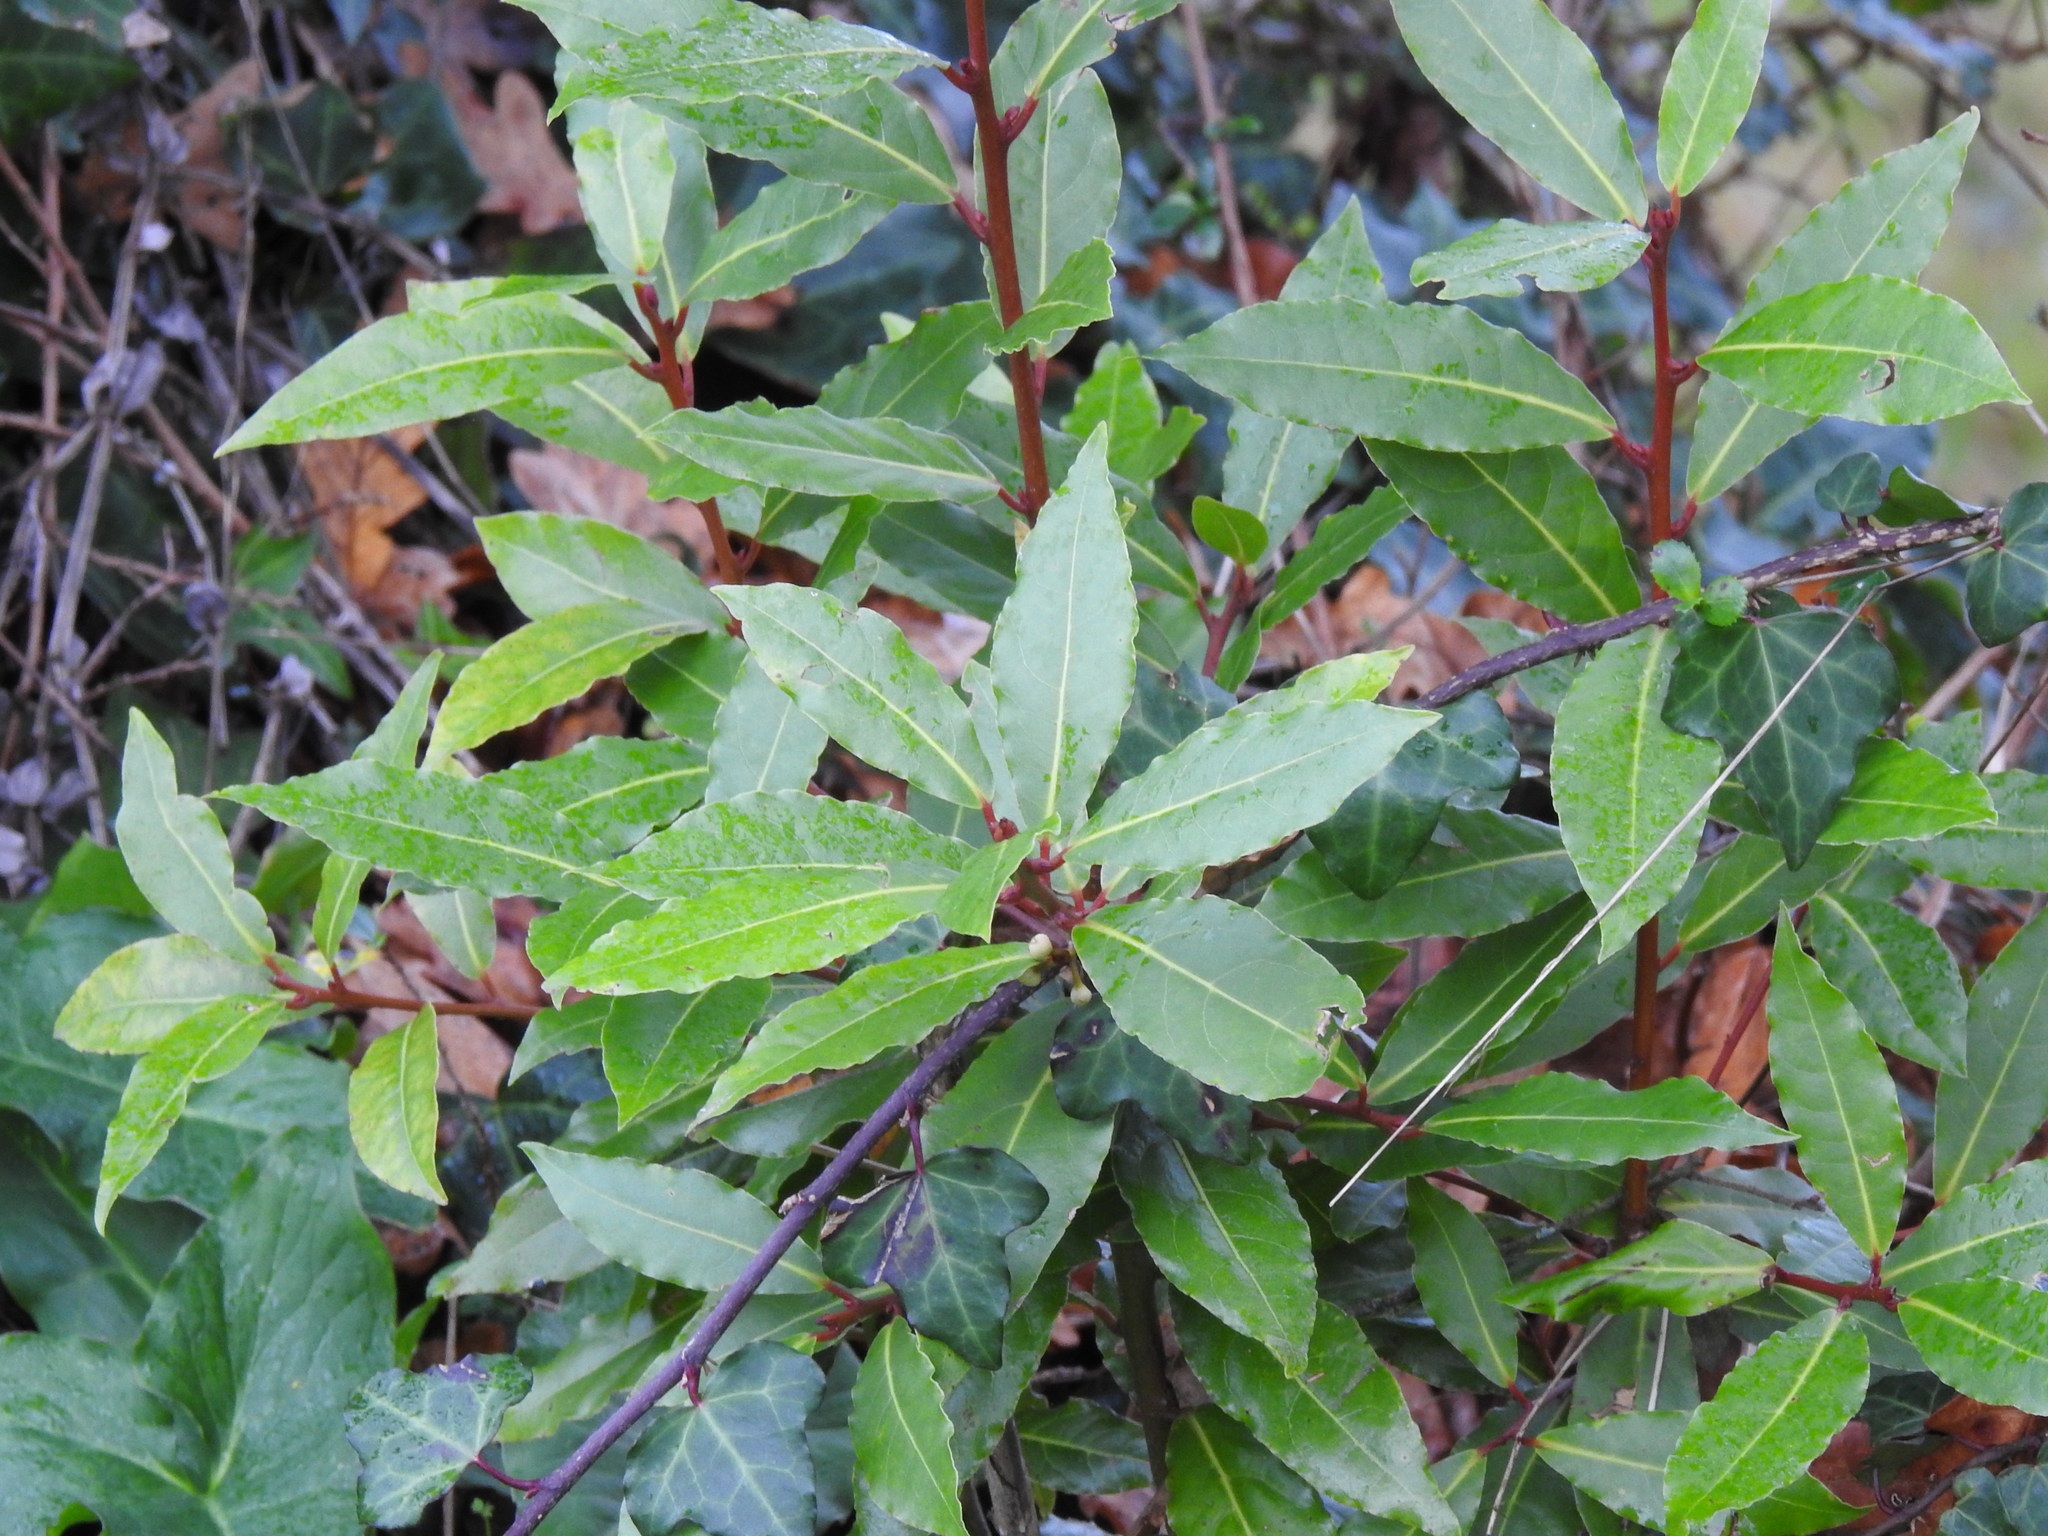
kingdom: Plantae
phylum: Tracheophyta
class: Magnoliopsida
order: Laurales
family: Lauraceae
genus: Laurus
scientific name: Laurus nobilis
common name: Bay
